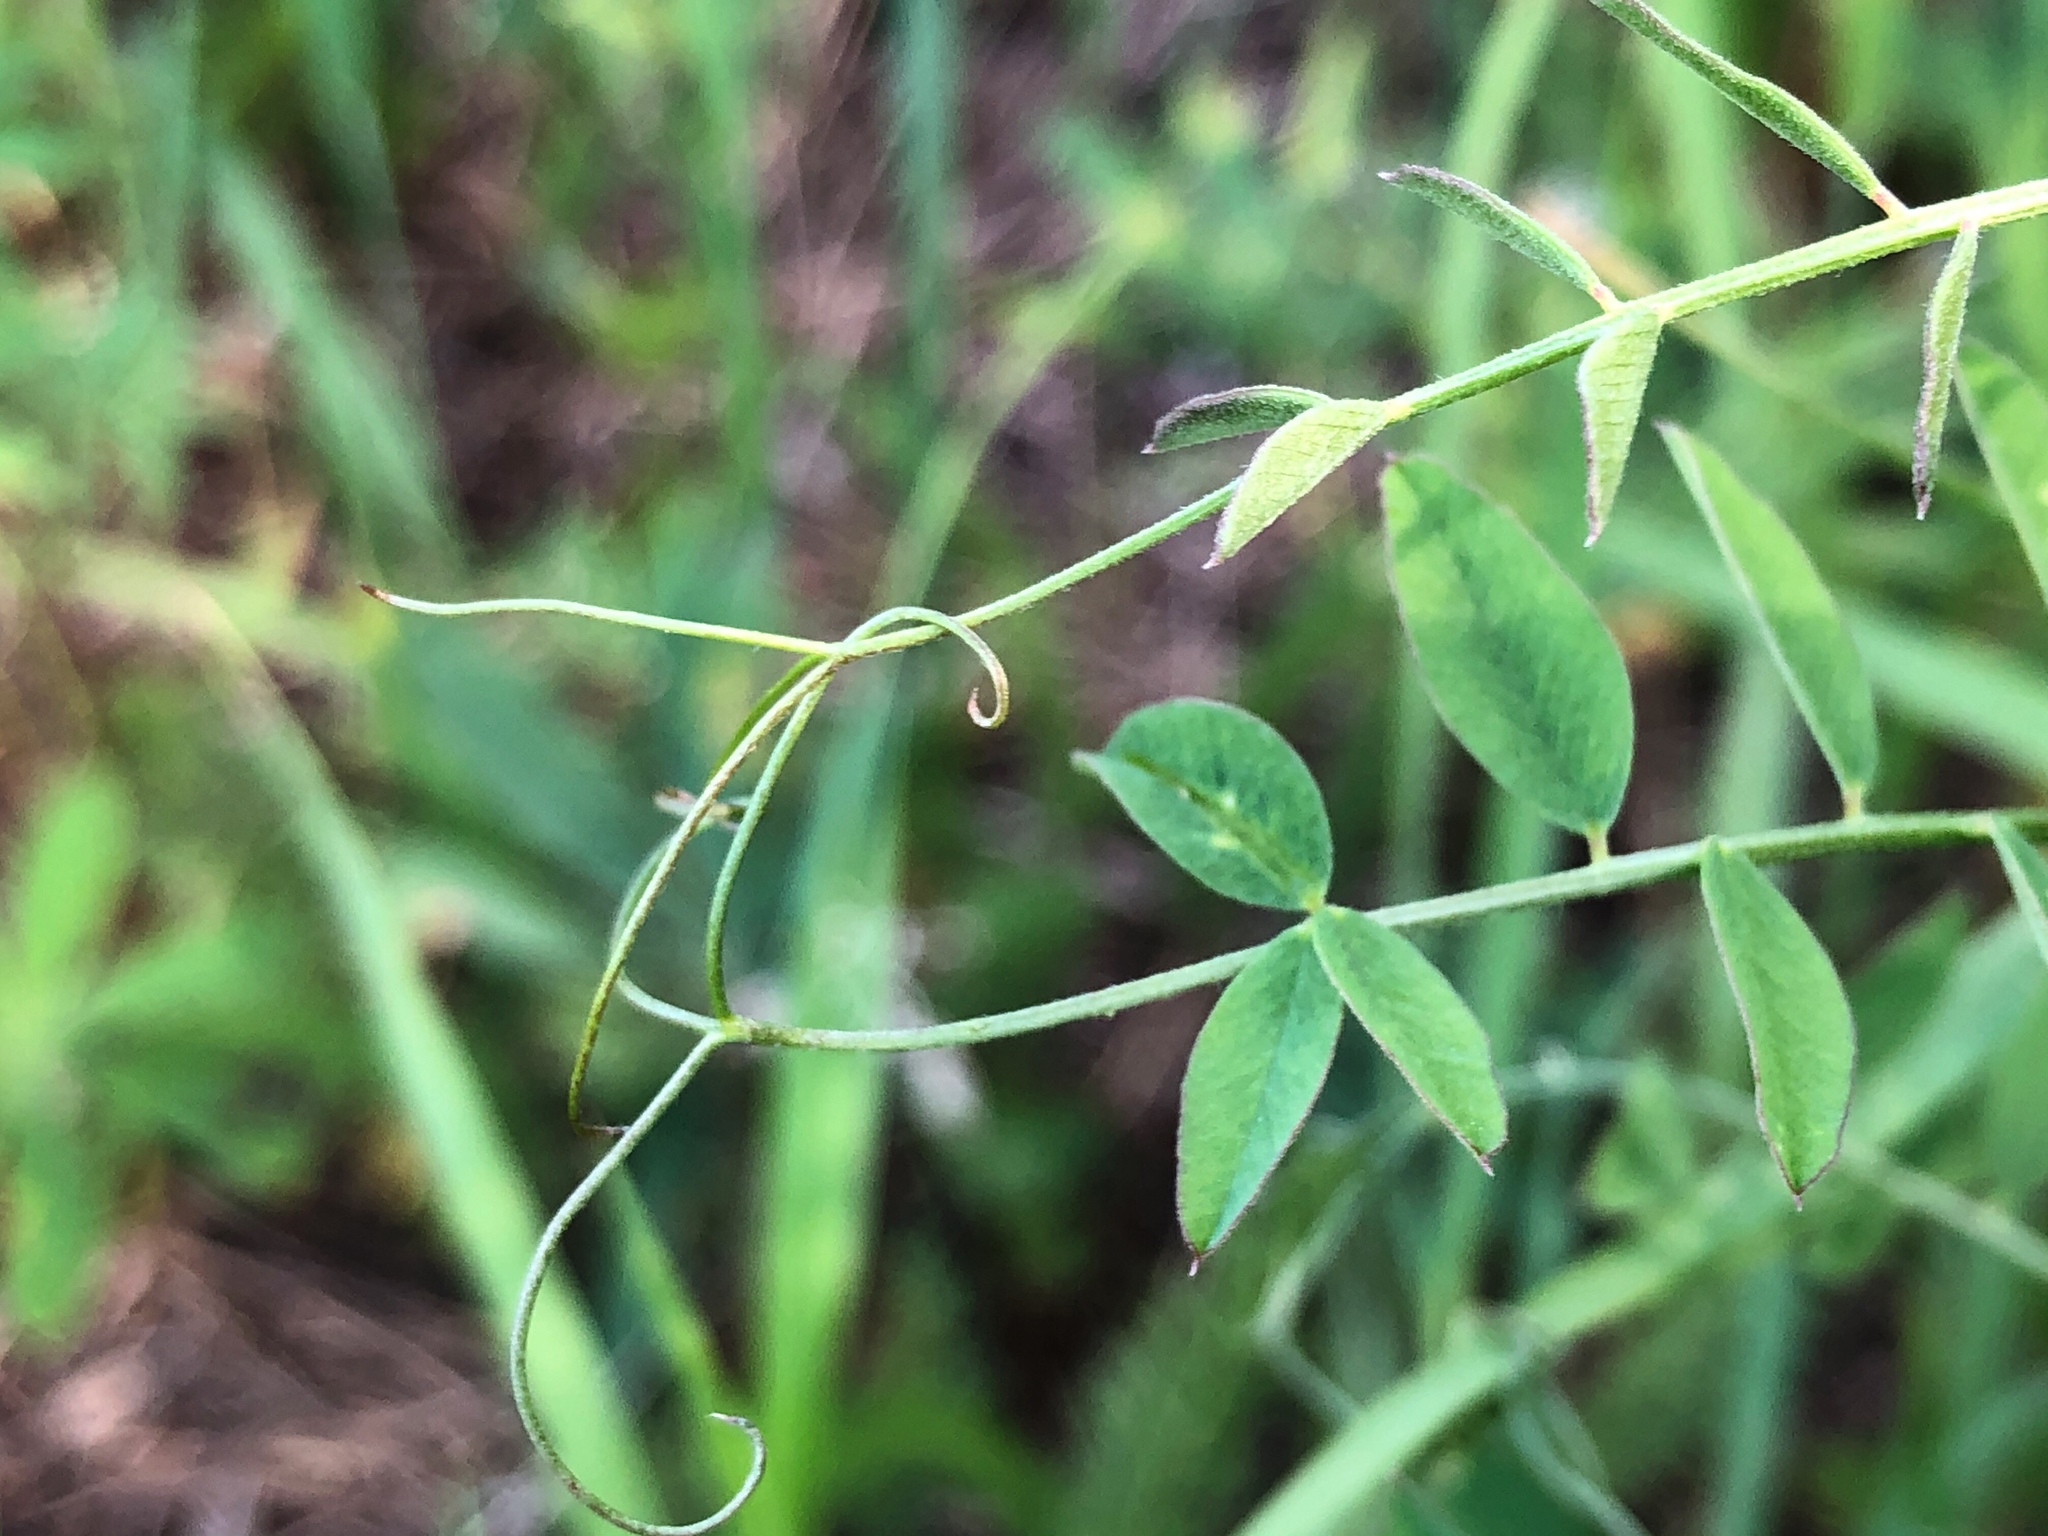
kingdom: Plantae
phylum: Tracheophyta
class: Magnoliopsida
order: Fabales
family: Fabaceae
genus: Vicia
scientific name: Vicia americana
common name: American vetch
